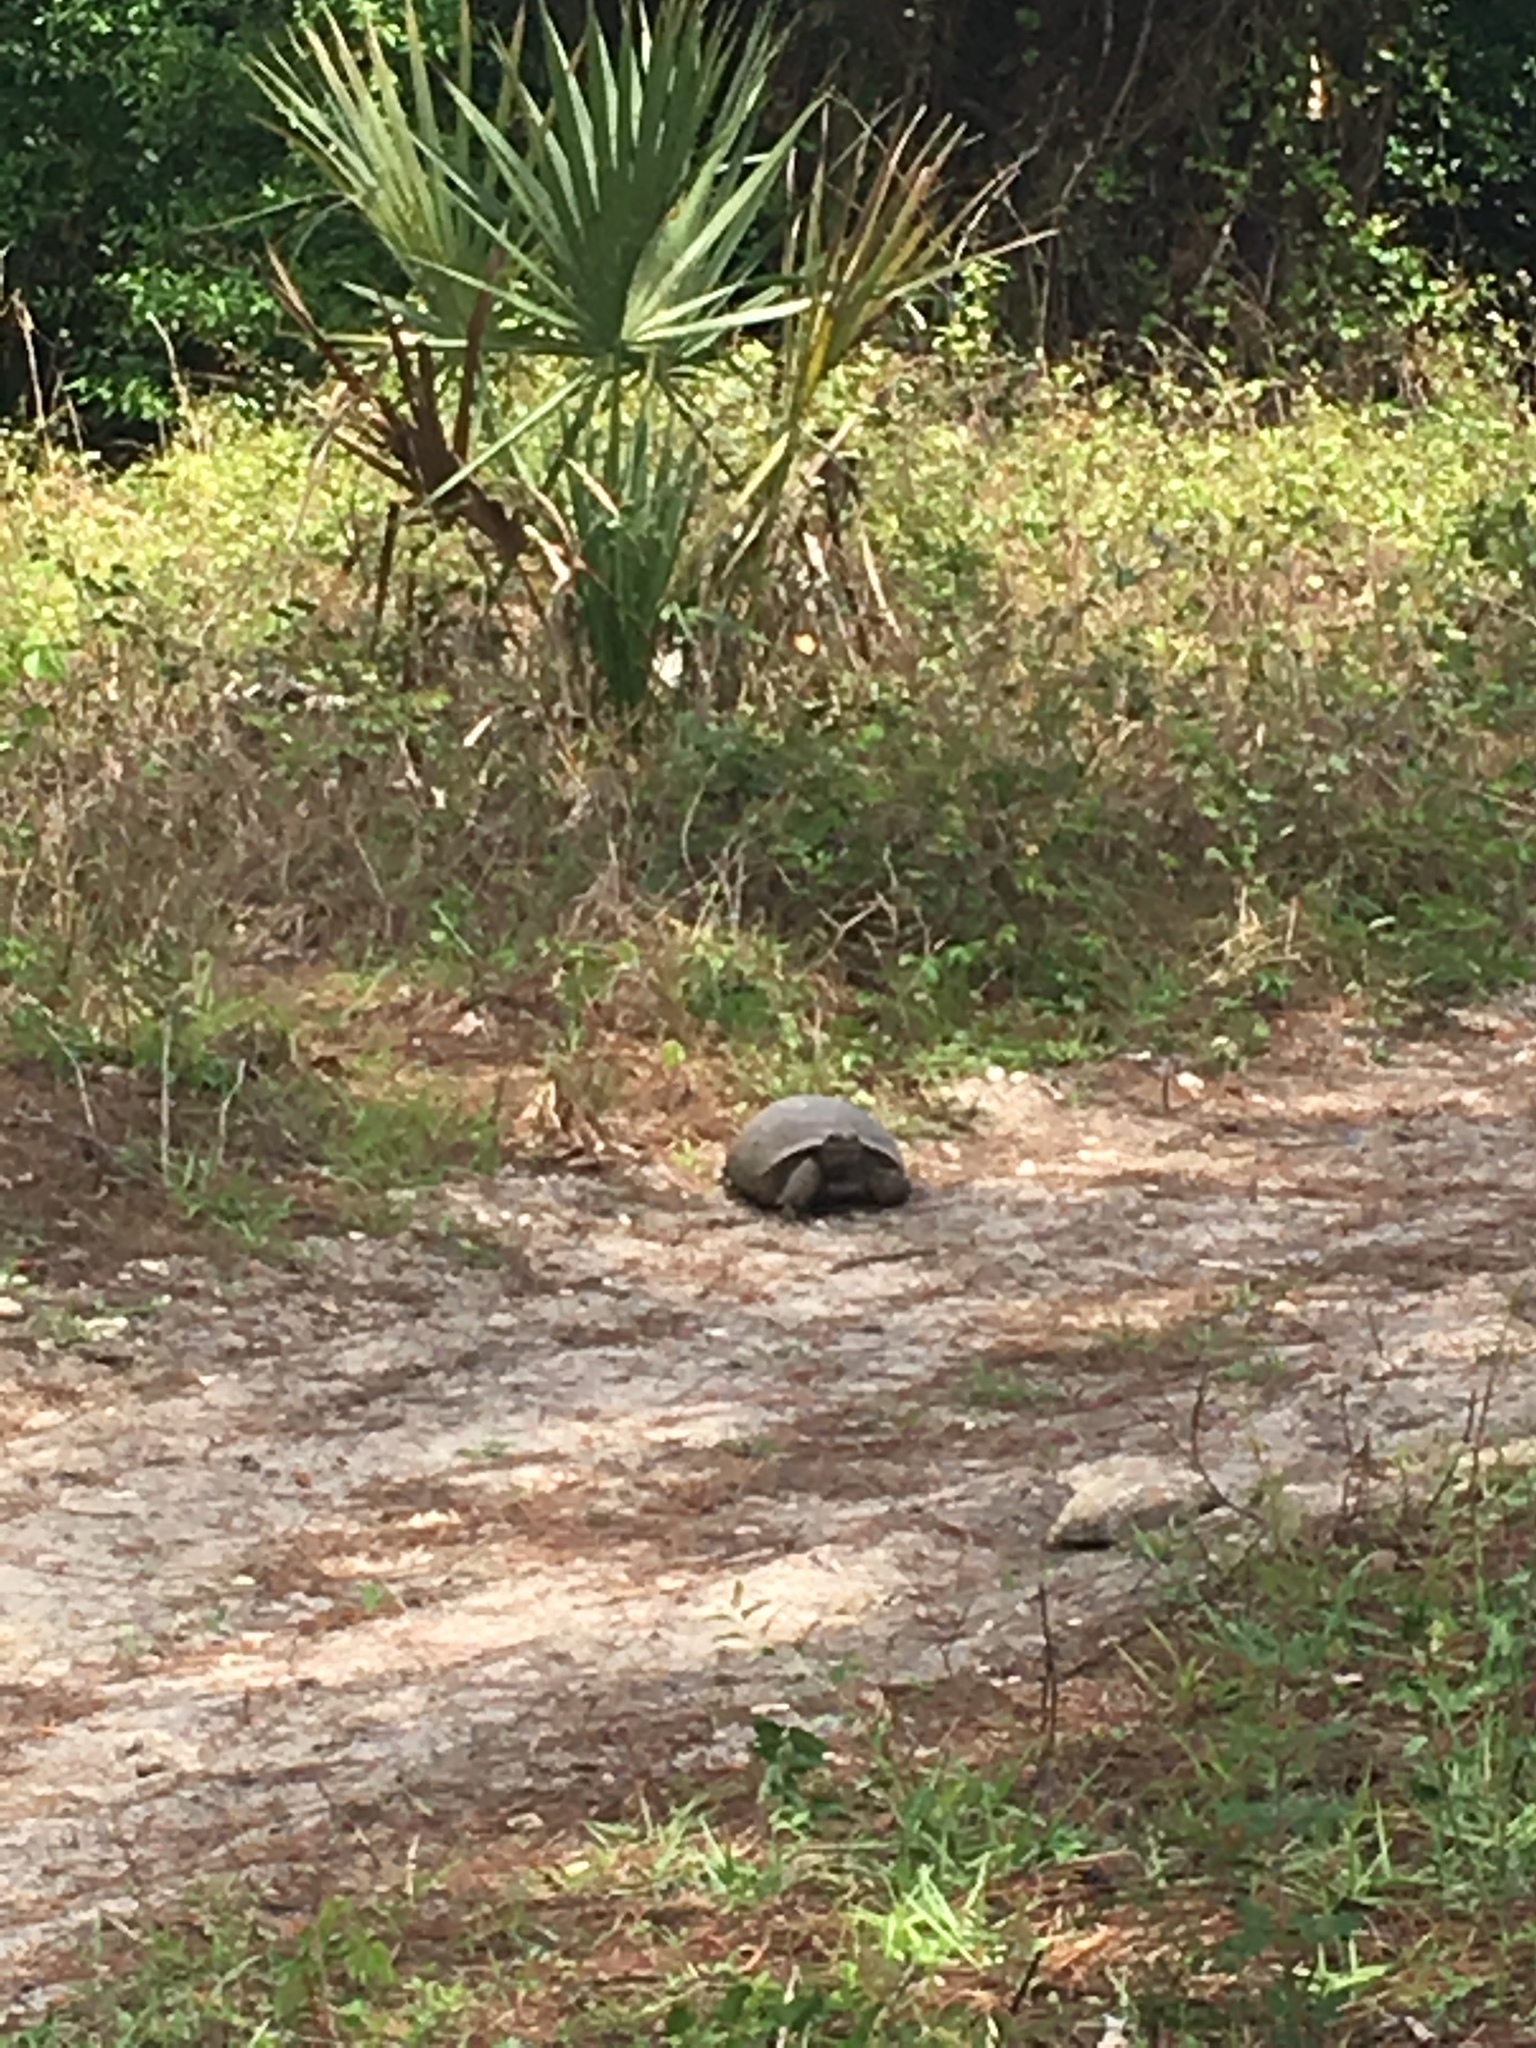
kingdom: Animalia
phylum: Chordata
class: Testudines
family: Testudinidae
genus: Gopherus
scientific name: Gopherus polyphemus
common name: Florida gopher tortoise
